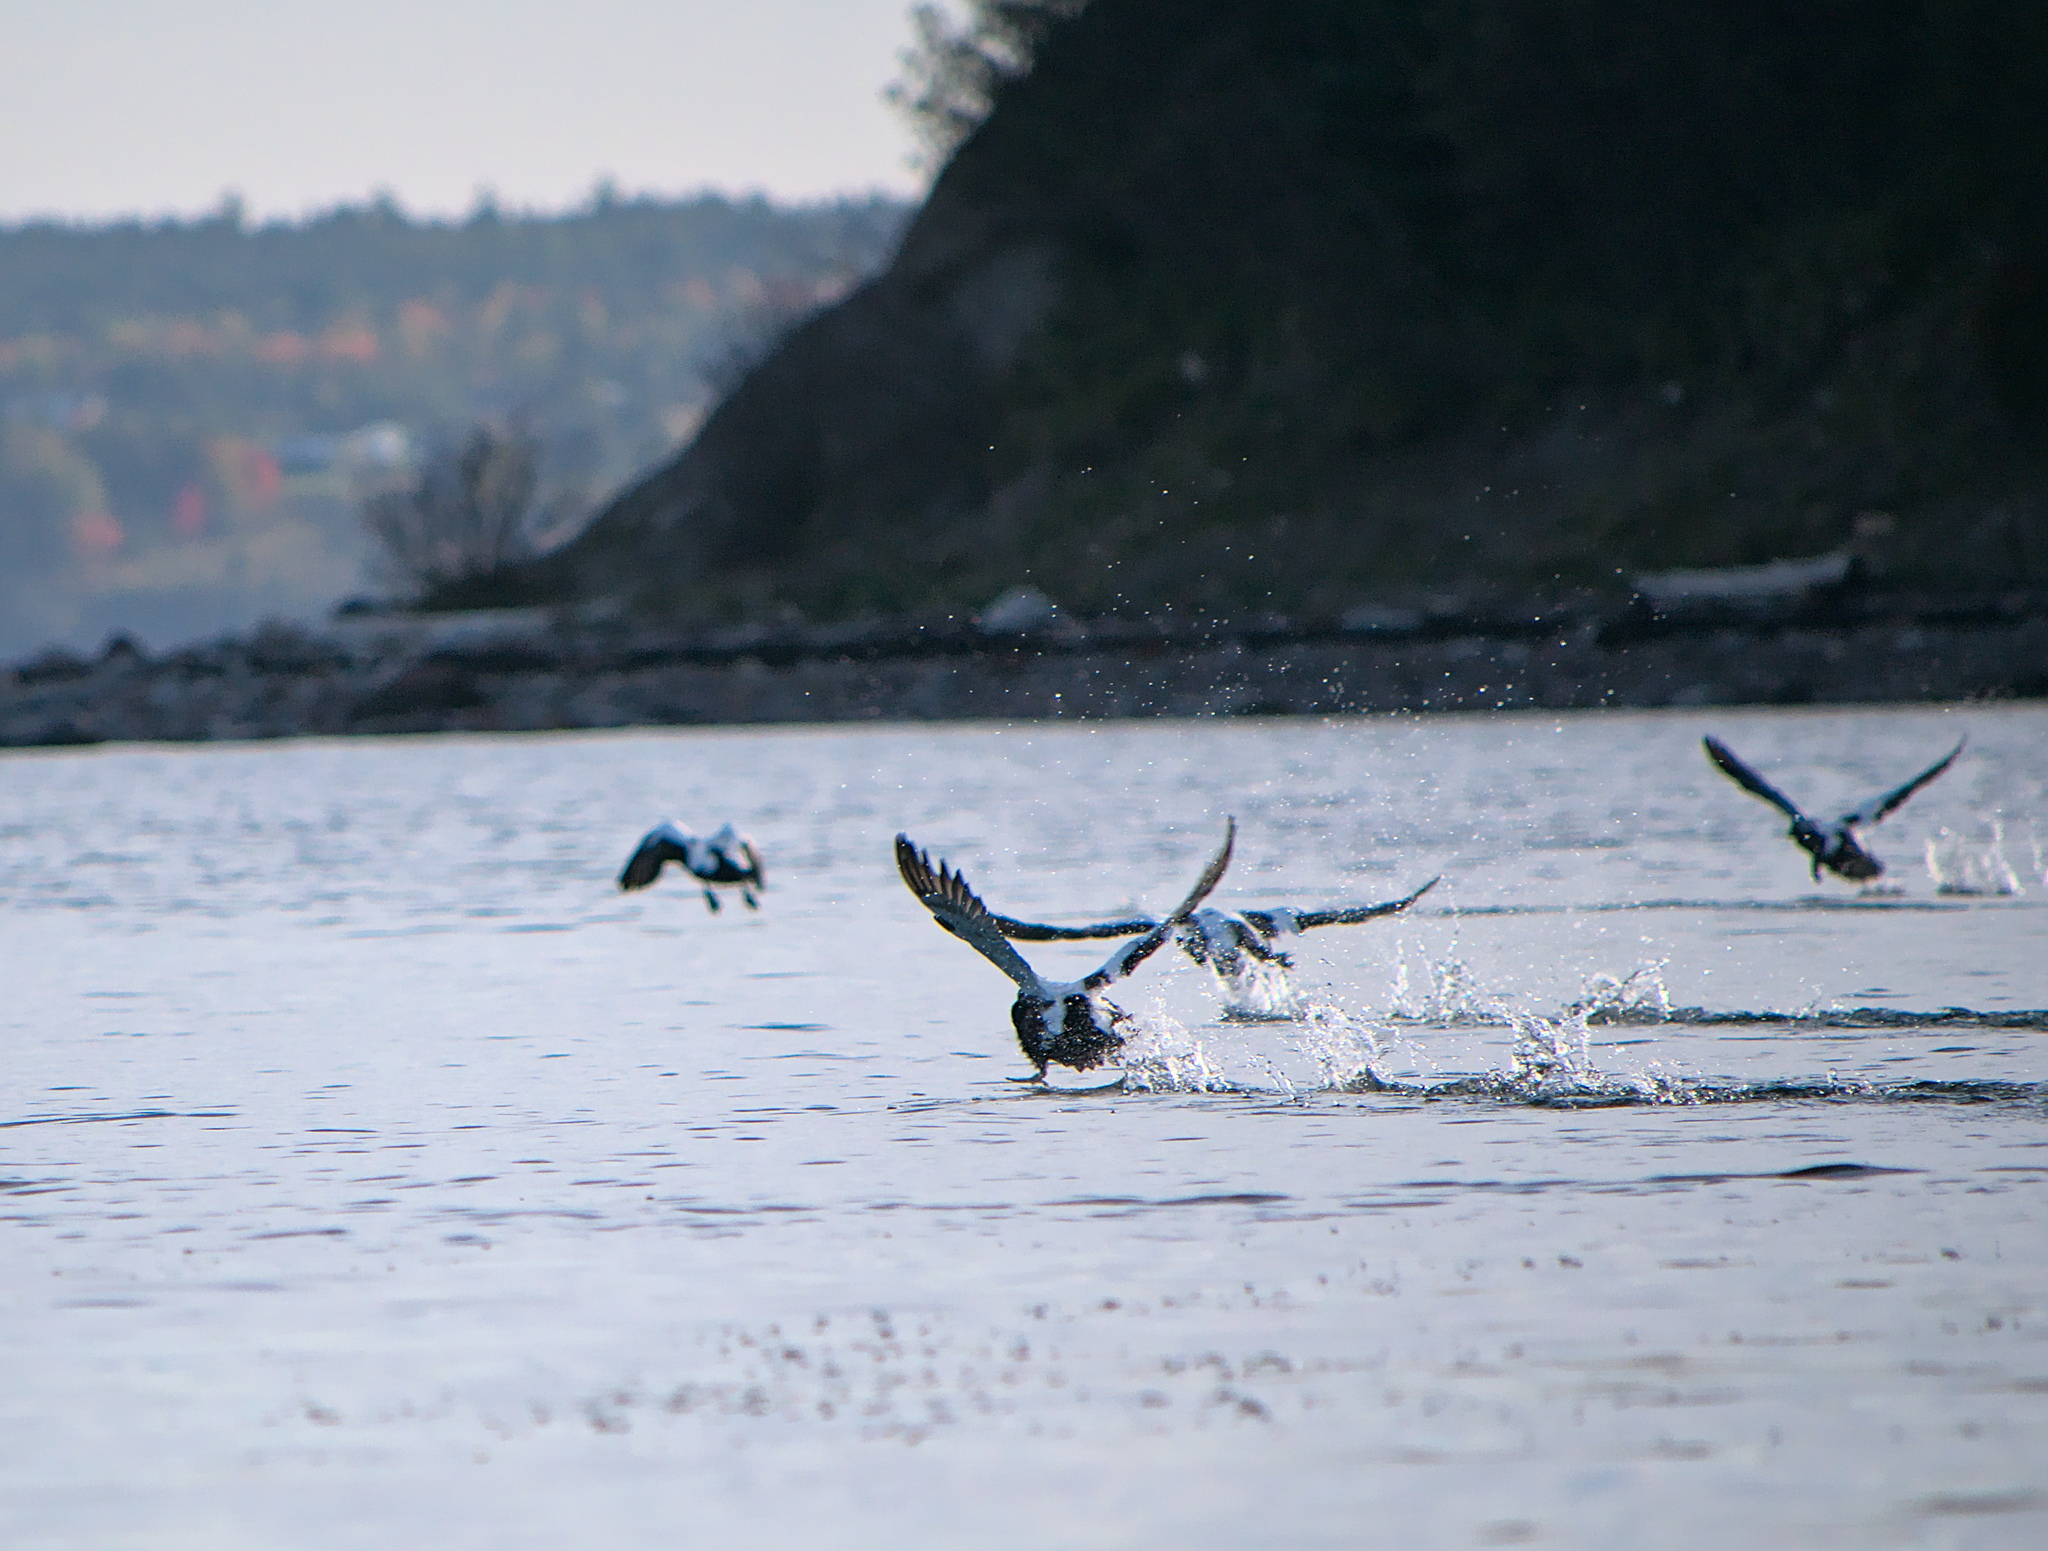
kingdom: Animalia
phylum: Chordata
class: Aves
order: Anseriformes
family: Anatidae
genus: Somateria
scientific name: Somateria mollissima
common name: Common eider
